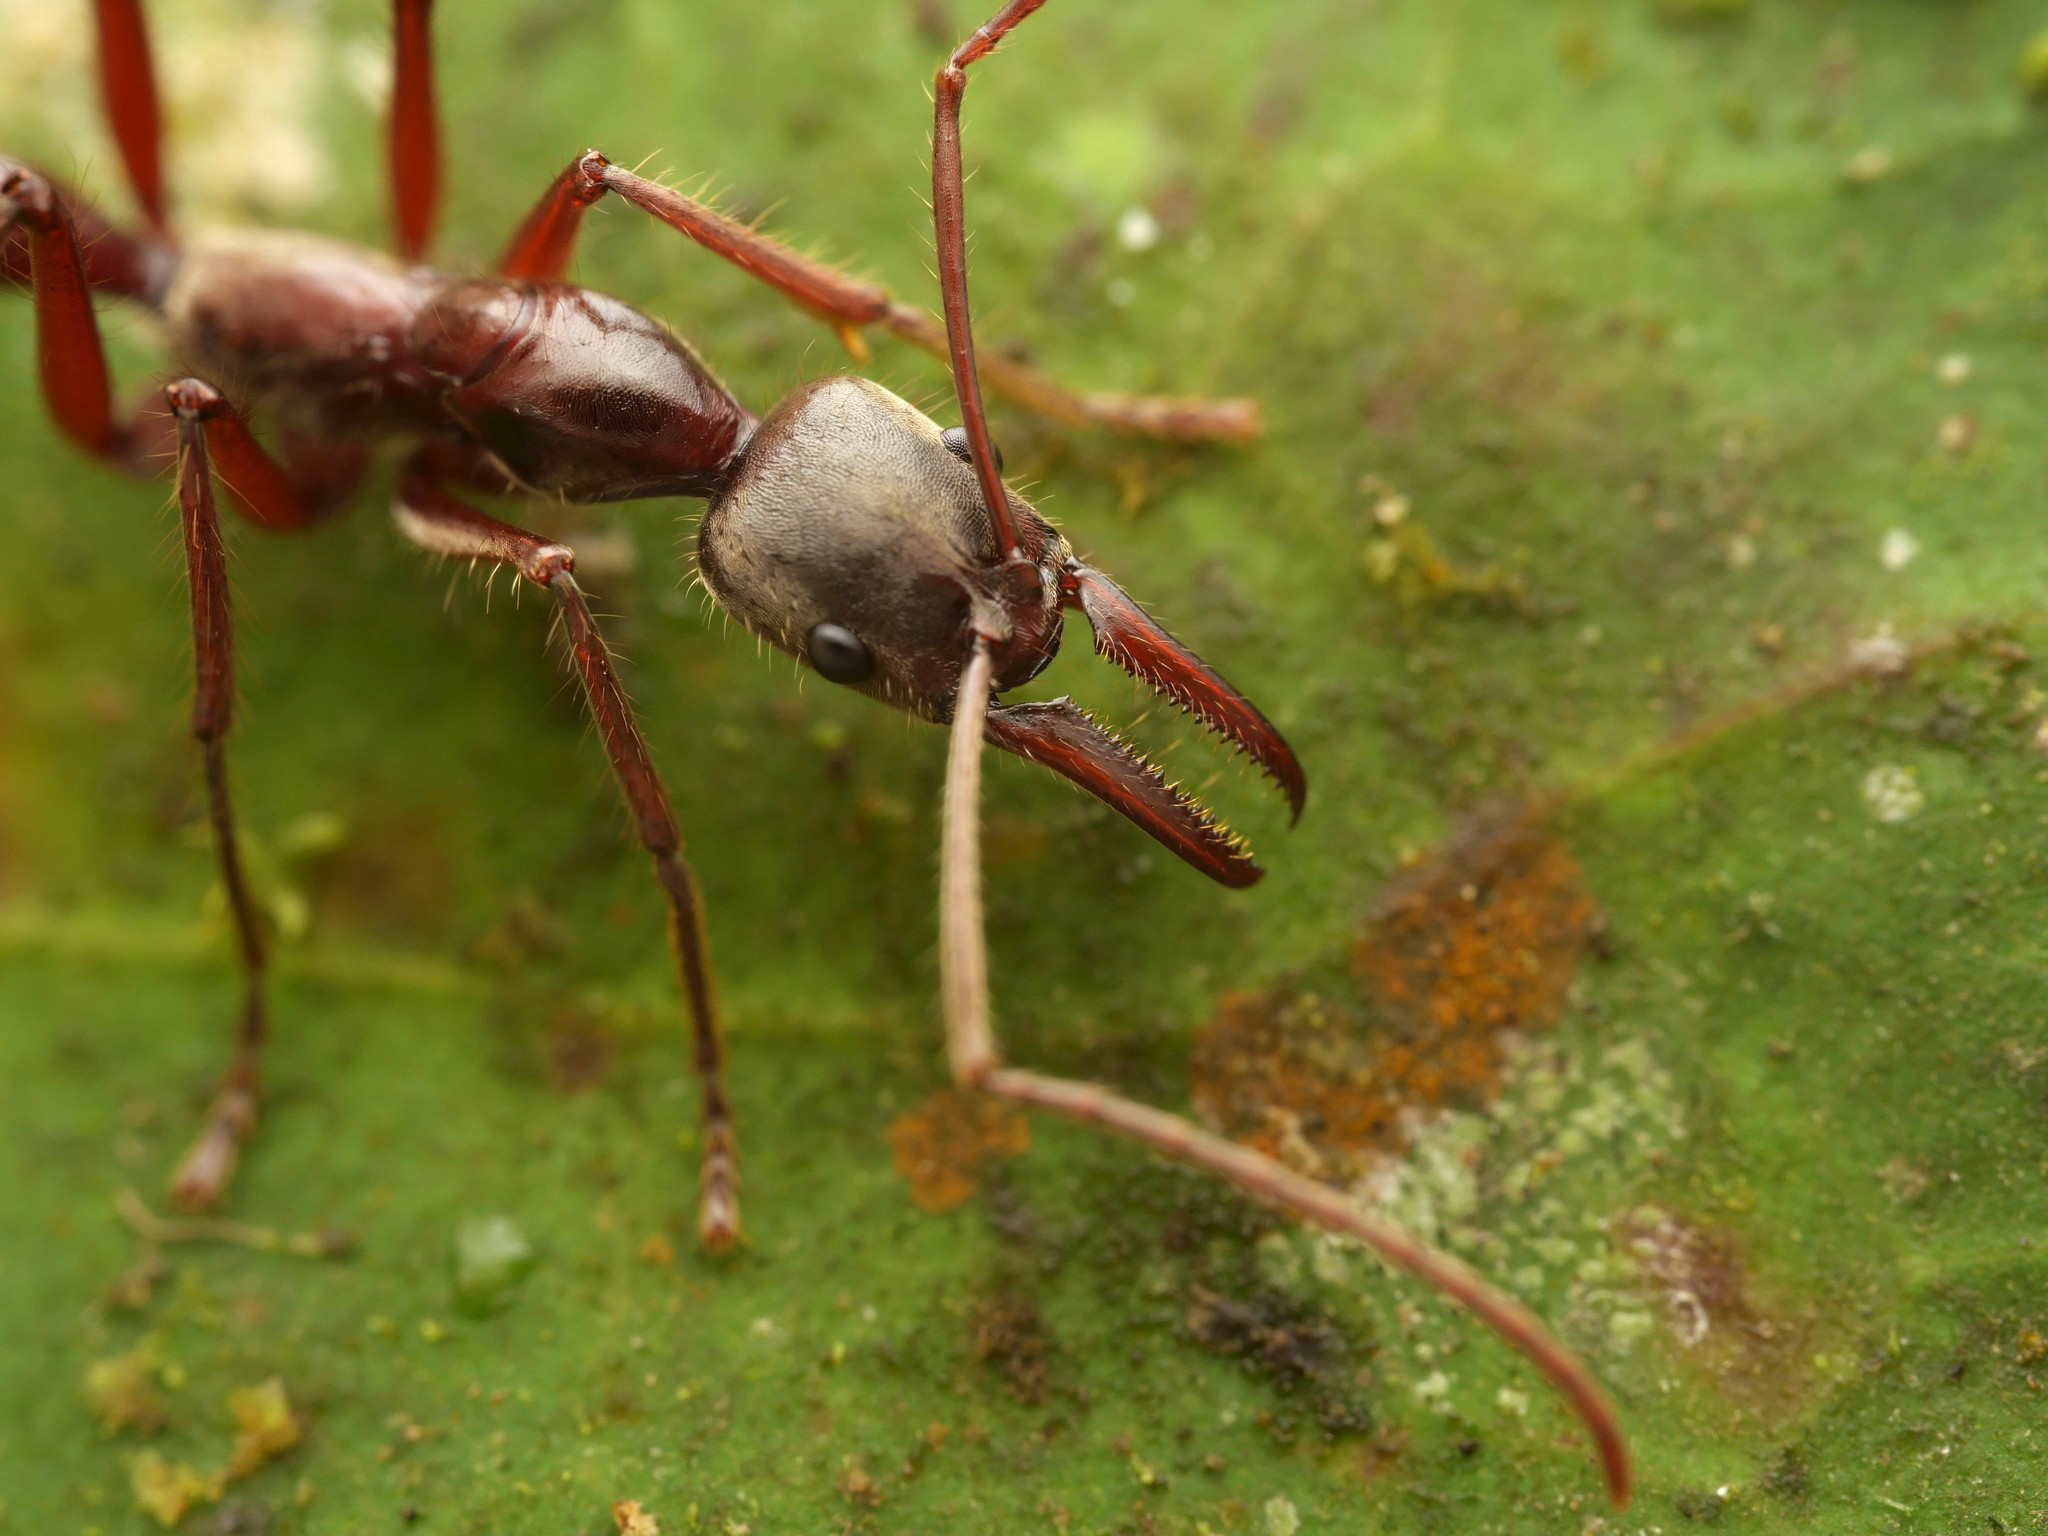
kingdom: Animalia
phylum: Arthropoda
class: Insecta
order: Hymenoptera
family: Formicidae
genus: Pachycondyla
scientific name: Pachycondyla rostrata
